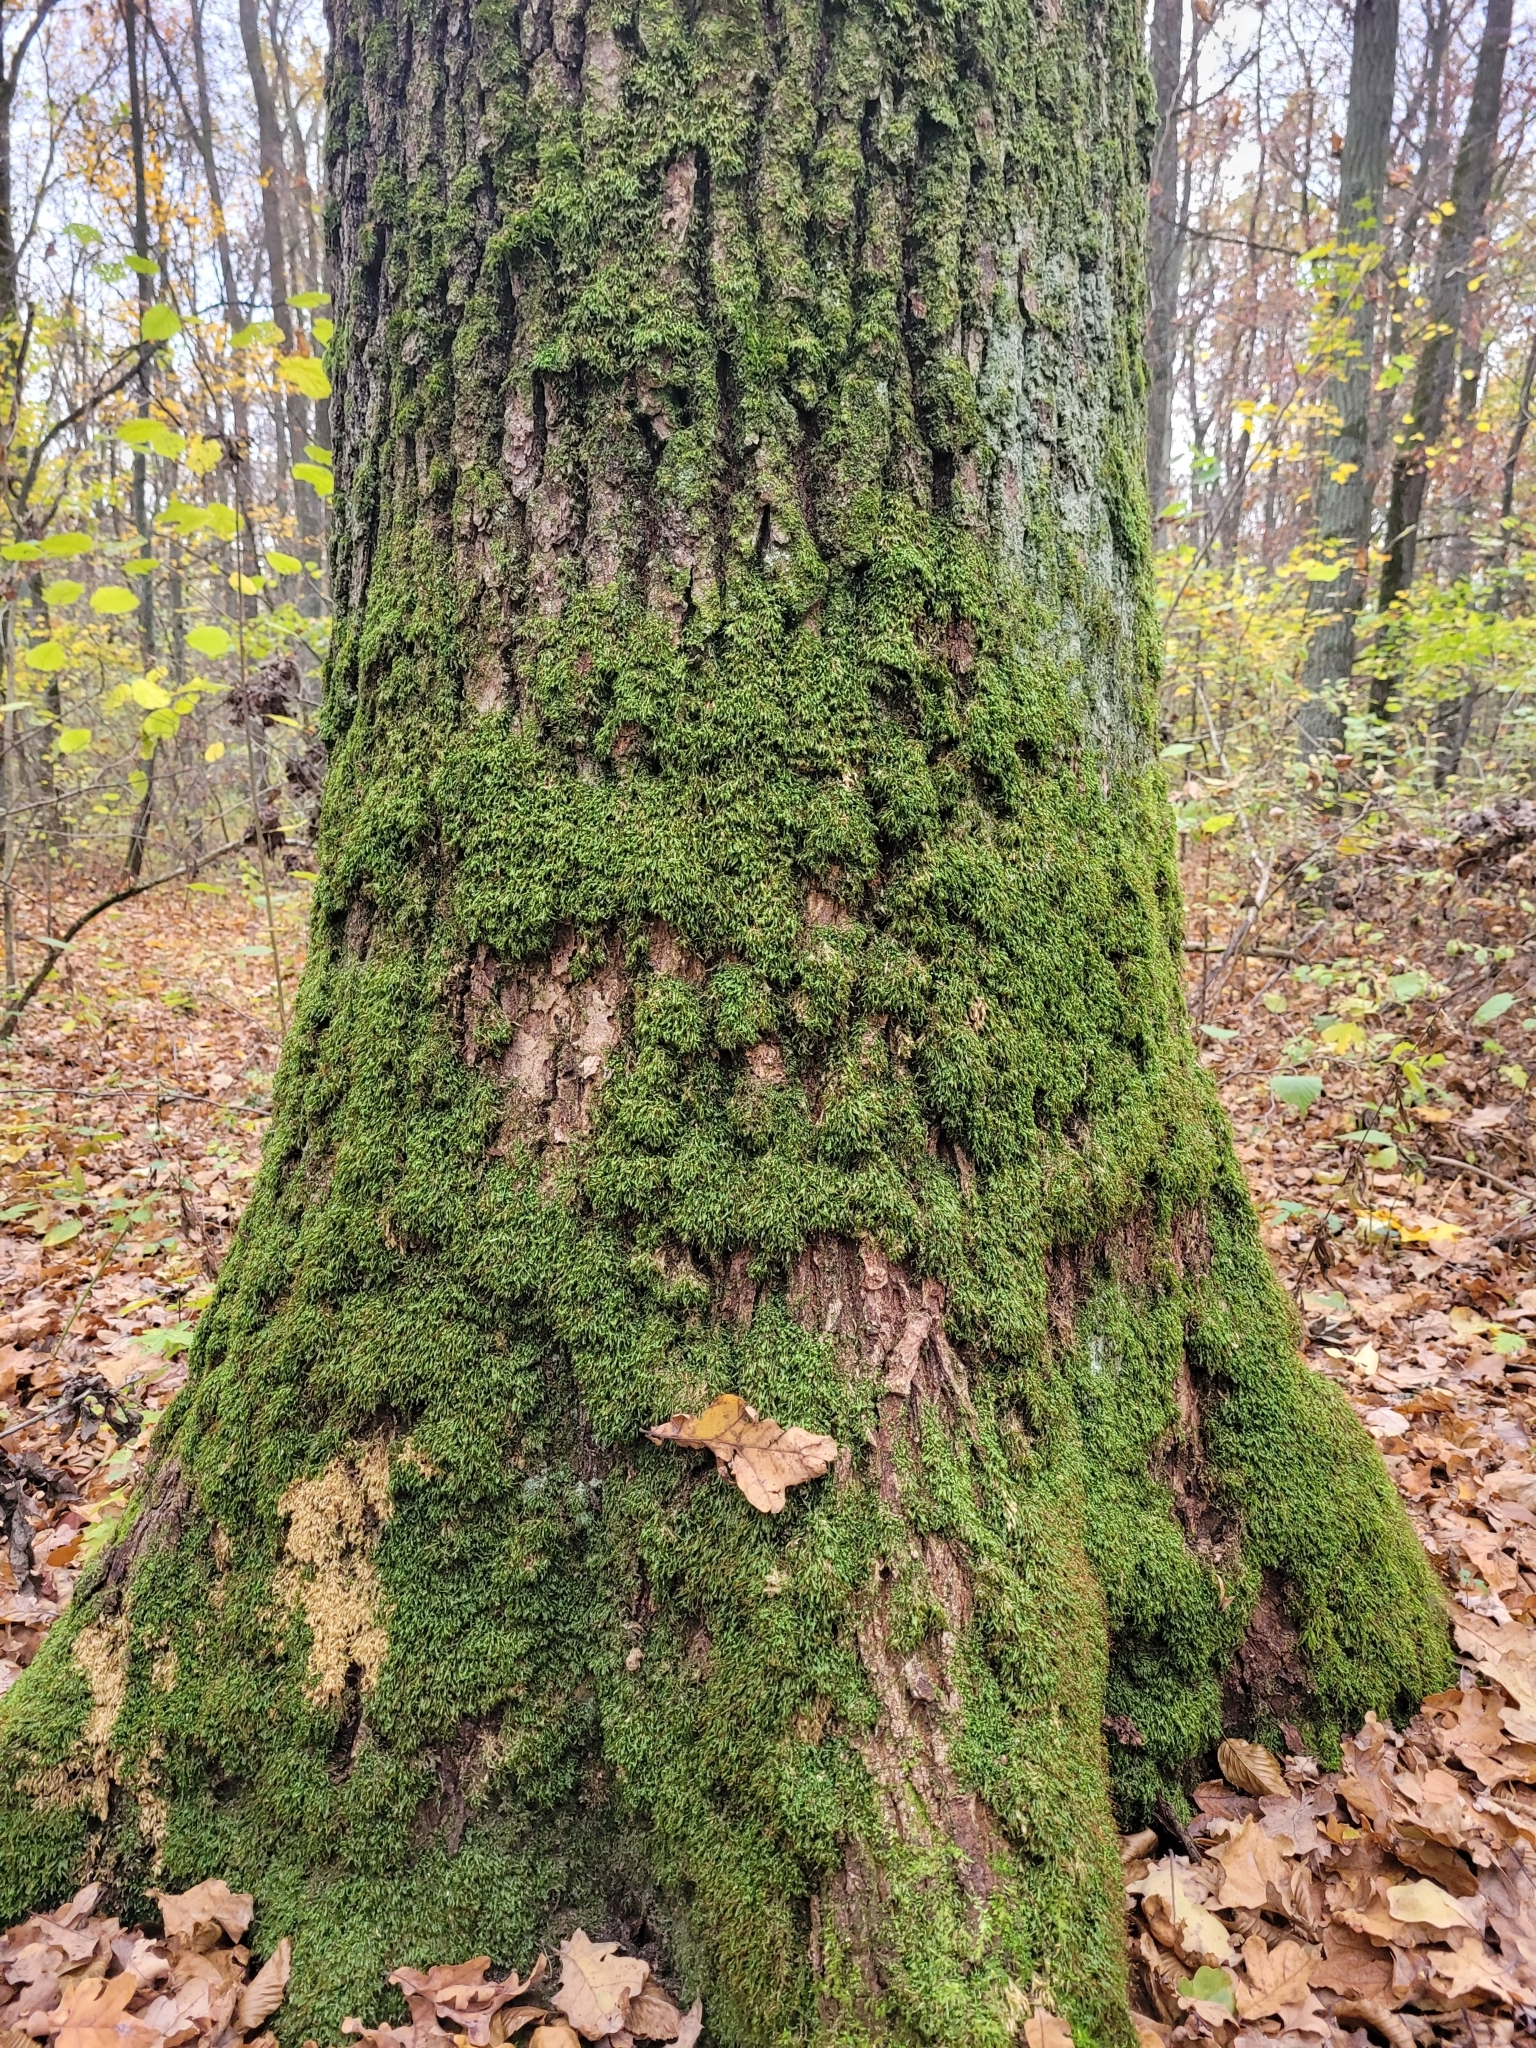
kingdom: Plantae
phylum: Bryophyta
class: Bryopsida
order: Hypnales
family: Neckeraceae
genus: Homalia
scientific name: Homalia trichomanoides
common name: Lime homalia moss
